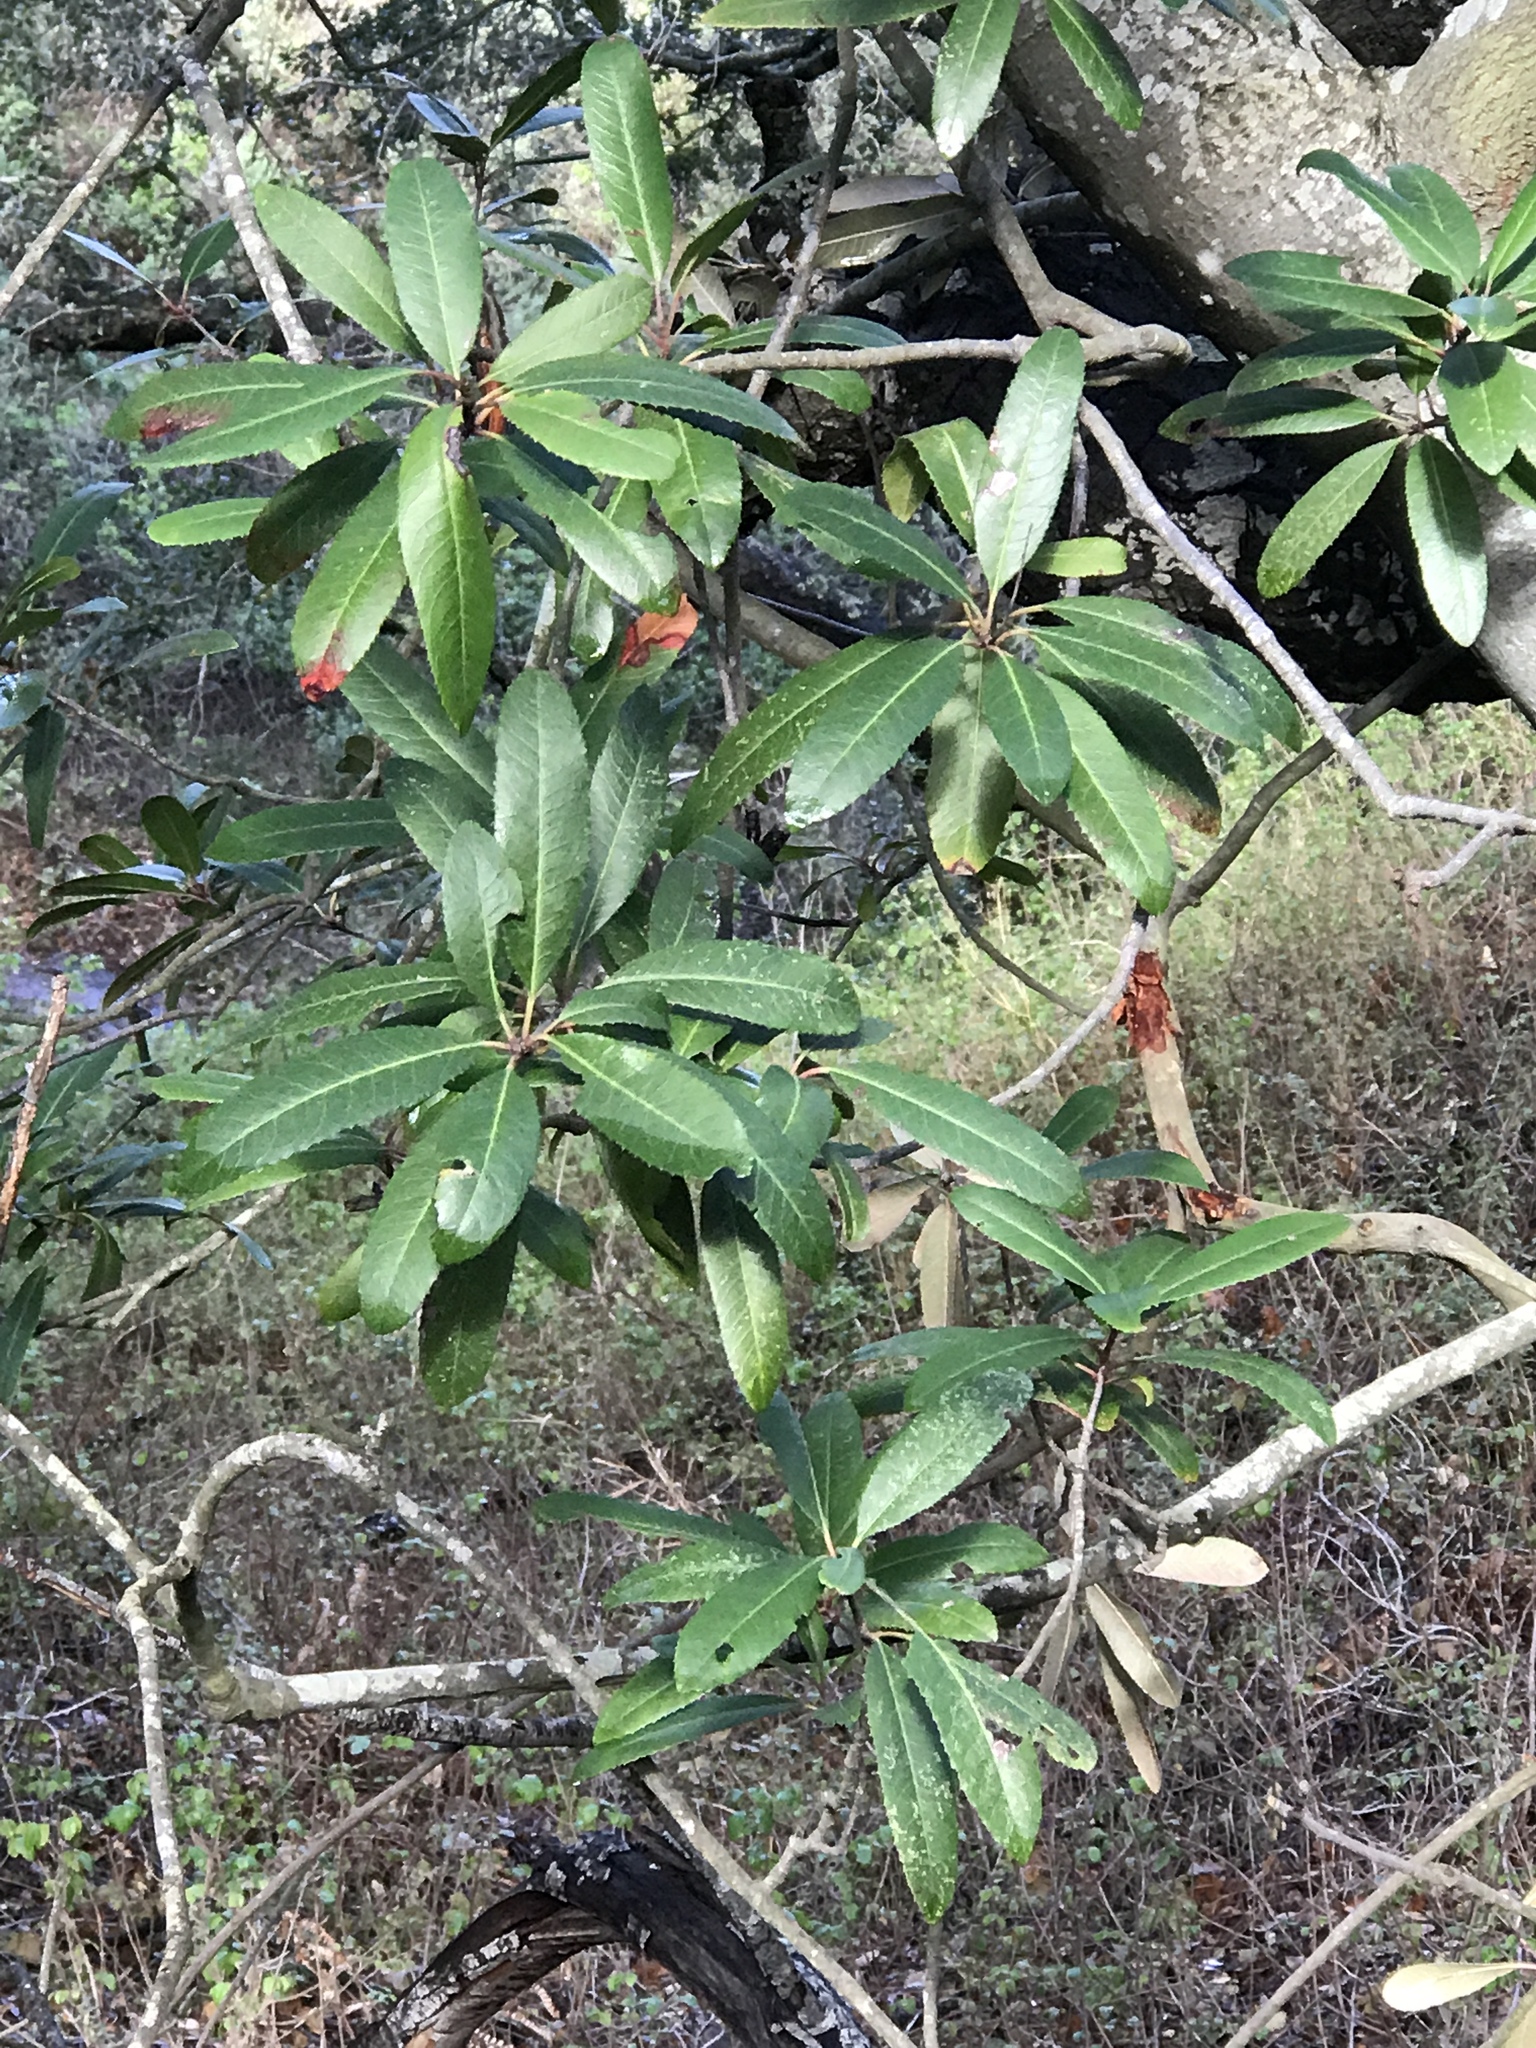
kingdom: Plantae
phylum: Tracheophyta
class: Magnoliopsida
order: Rosales
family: Rosaceae
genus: Heteromeles
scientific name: Heteromeles arbutifolia
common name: California-holly
